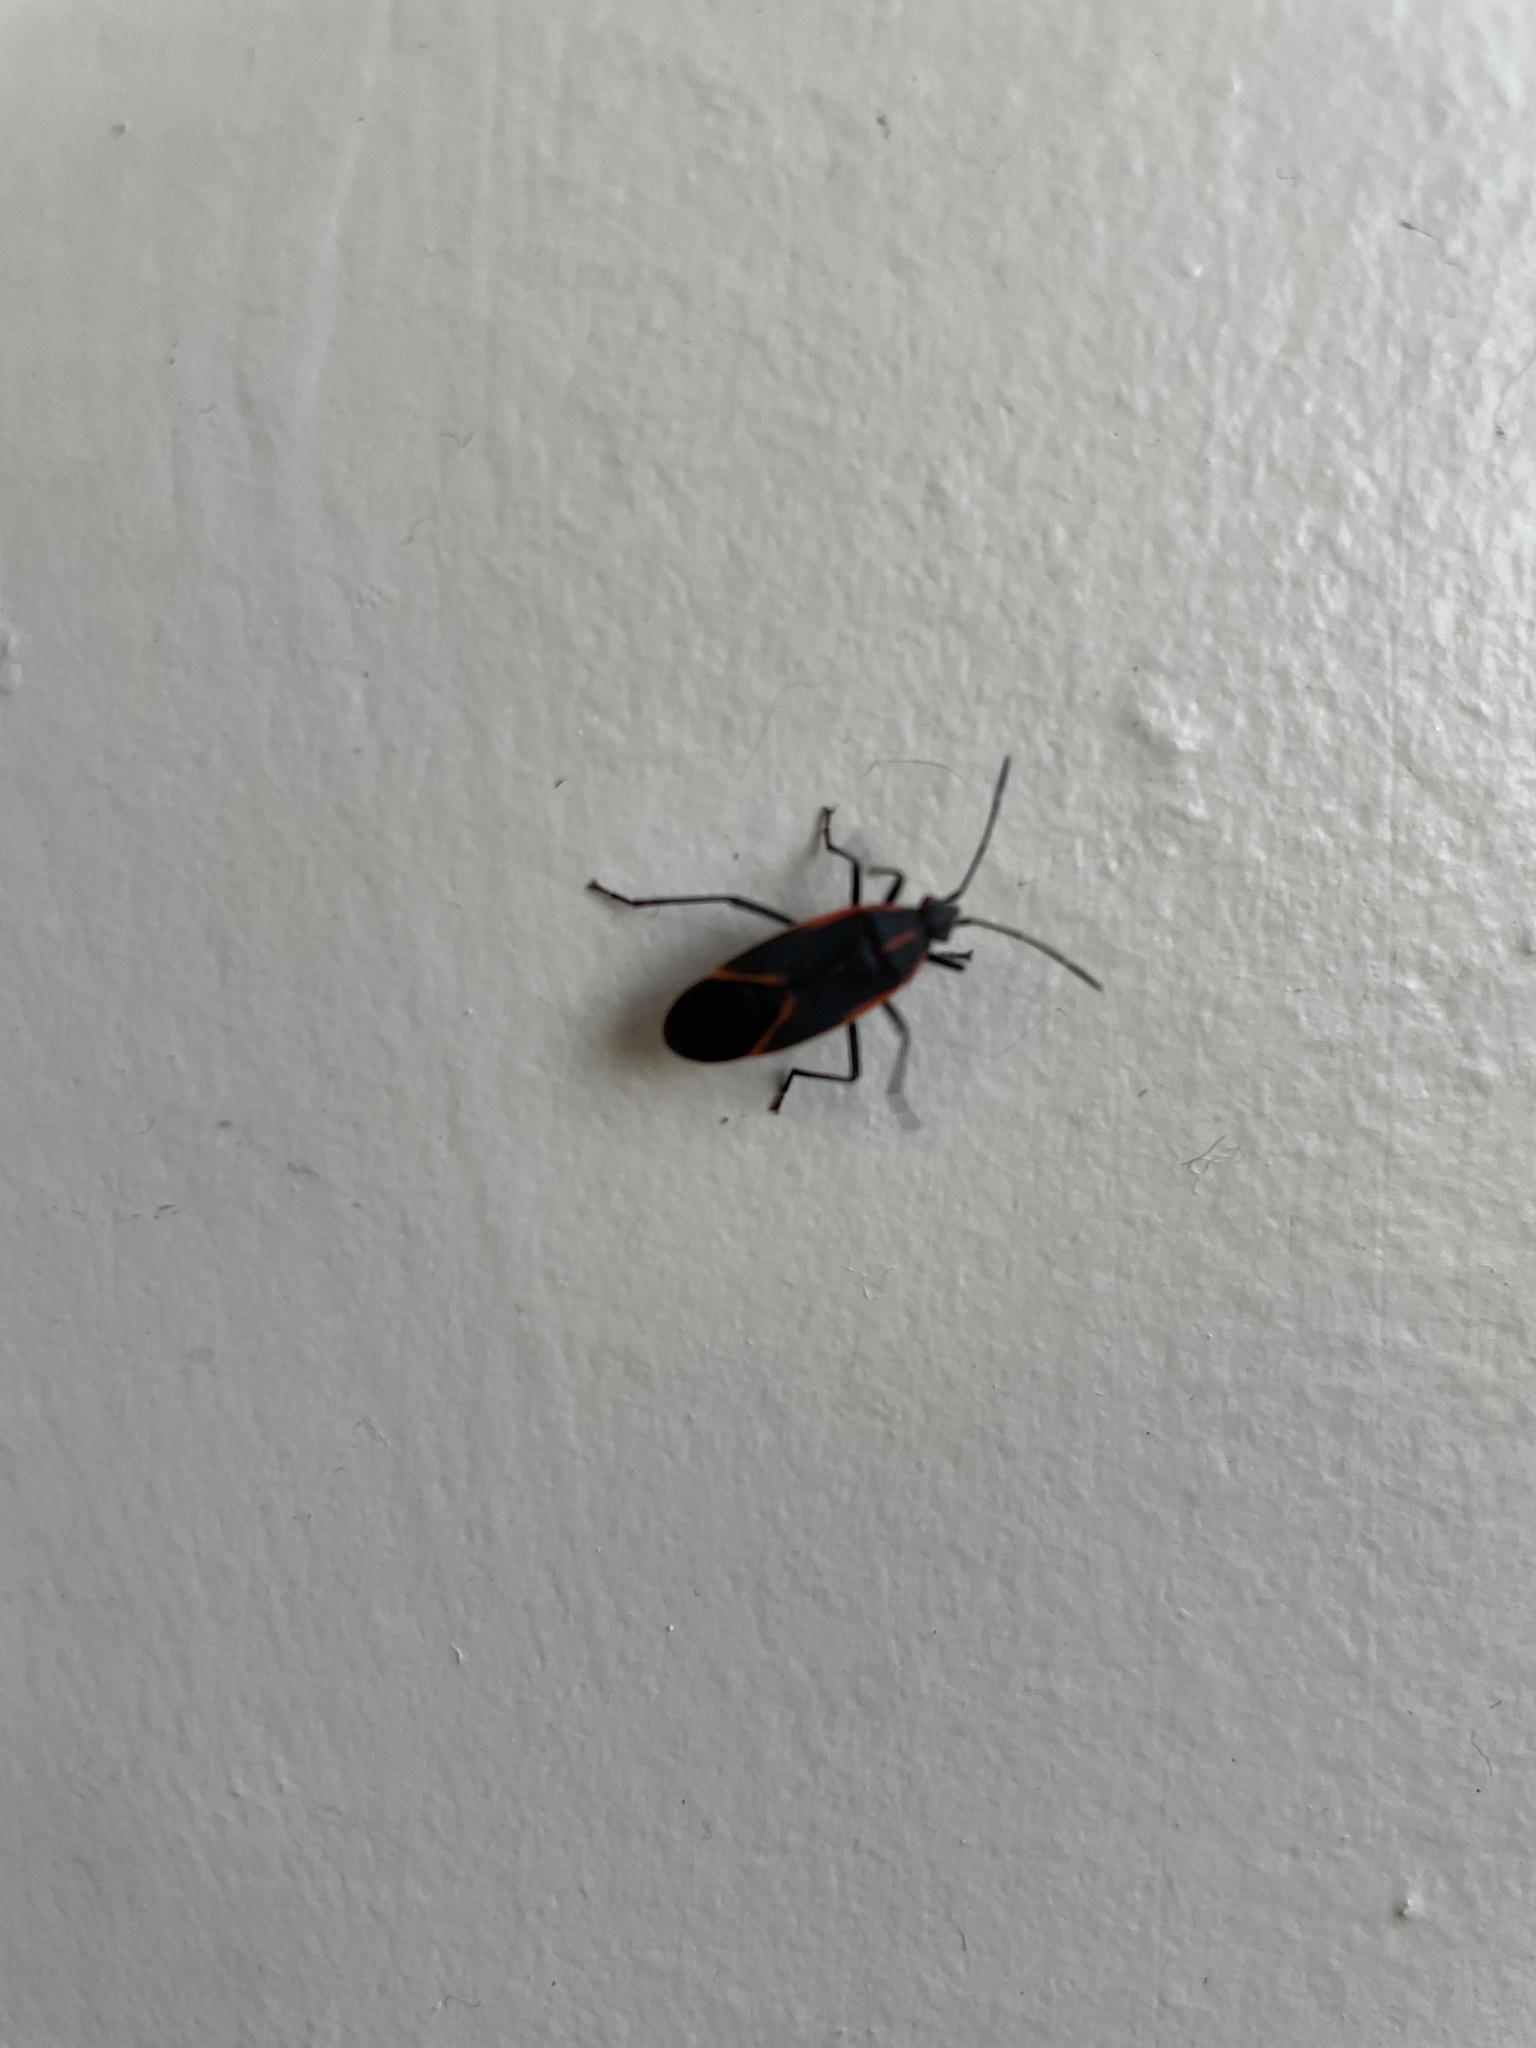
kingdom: Animalia
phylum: Arthropoda
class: Insecta
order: Hemiptera
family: Rhopalidae
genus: Boisea
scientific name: Boisea trivittata
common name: Boxelder bug
